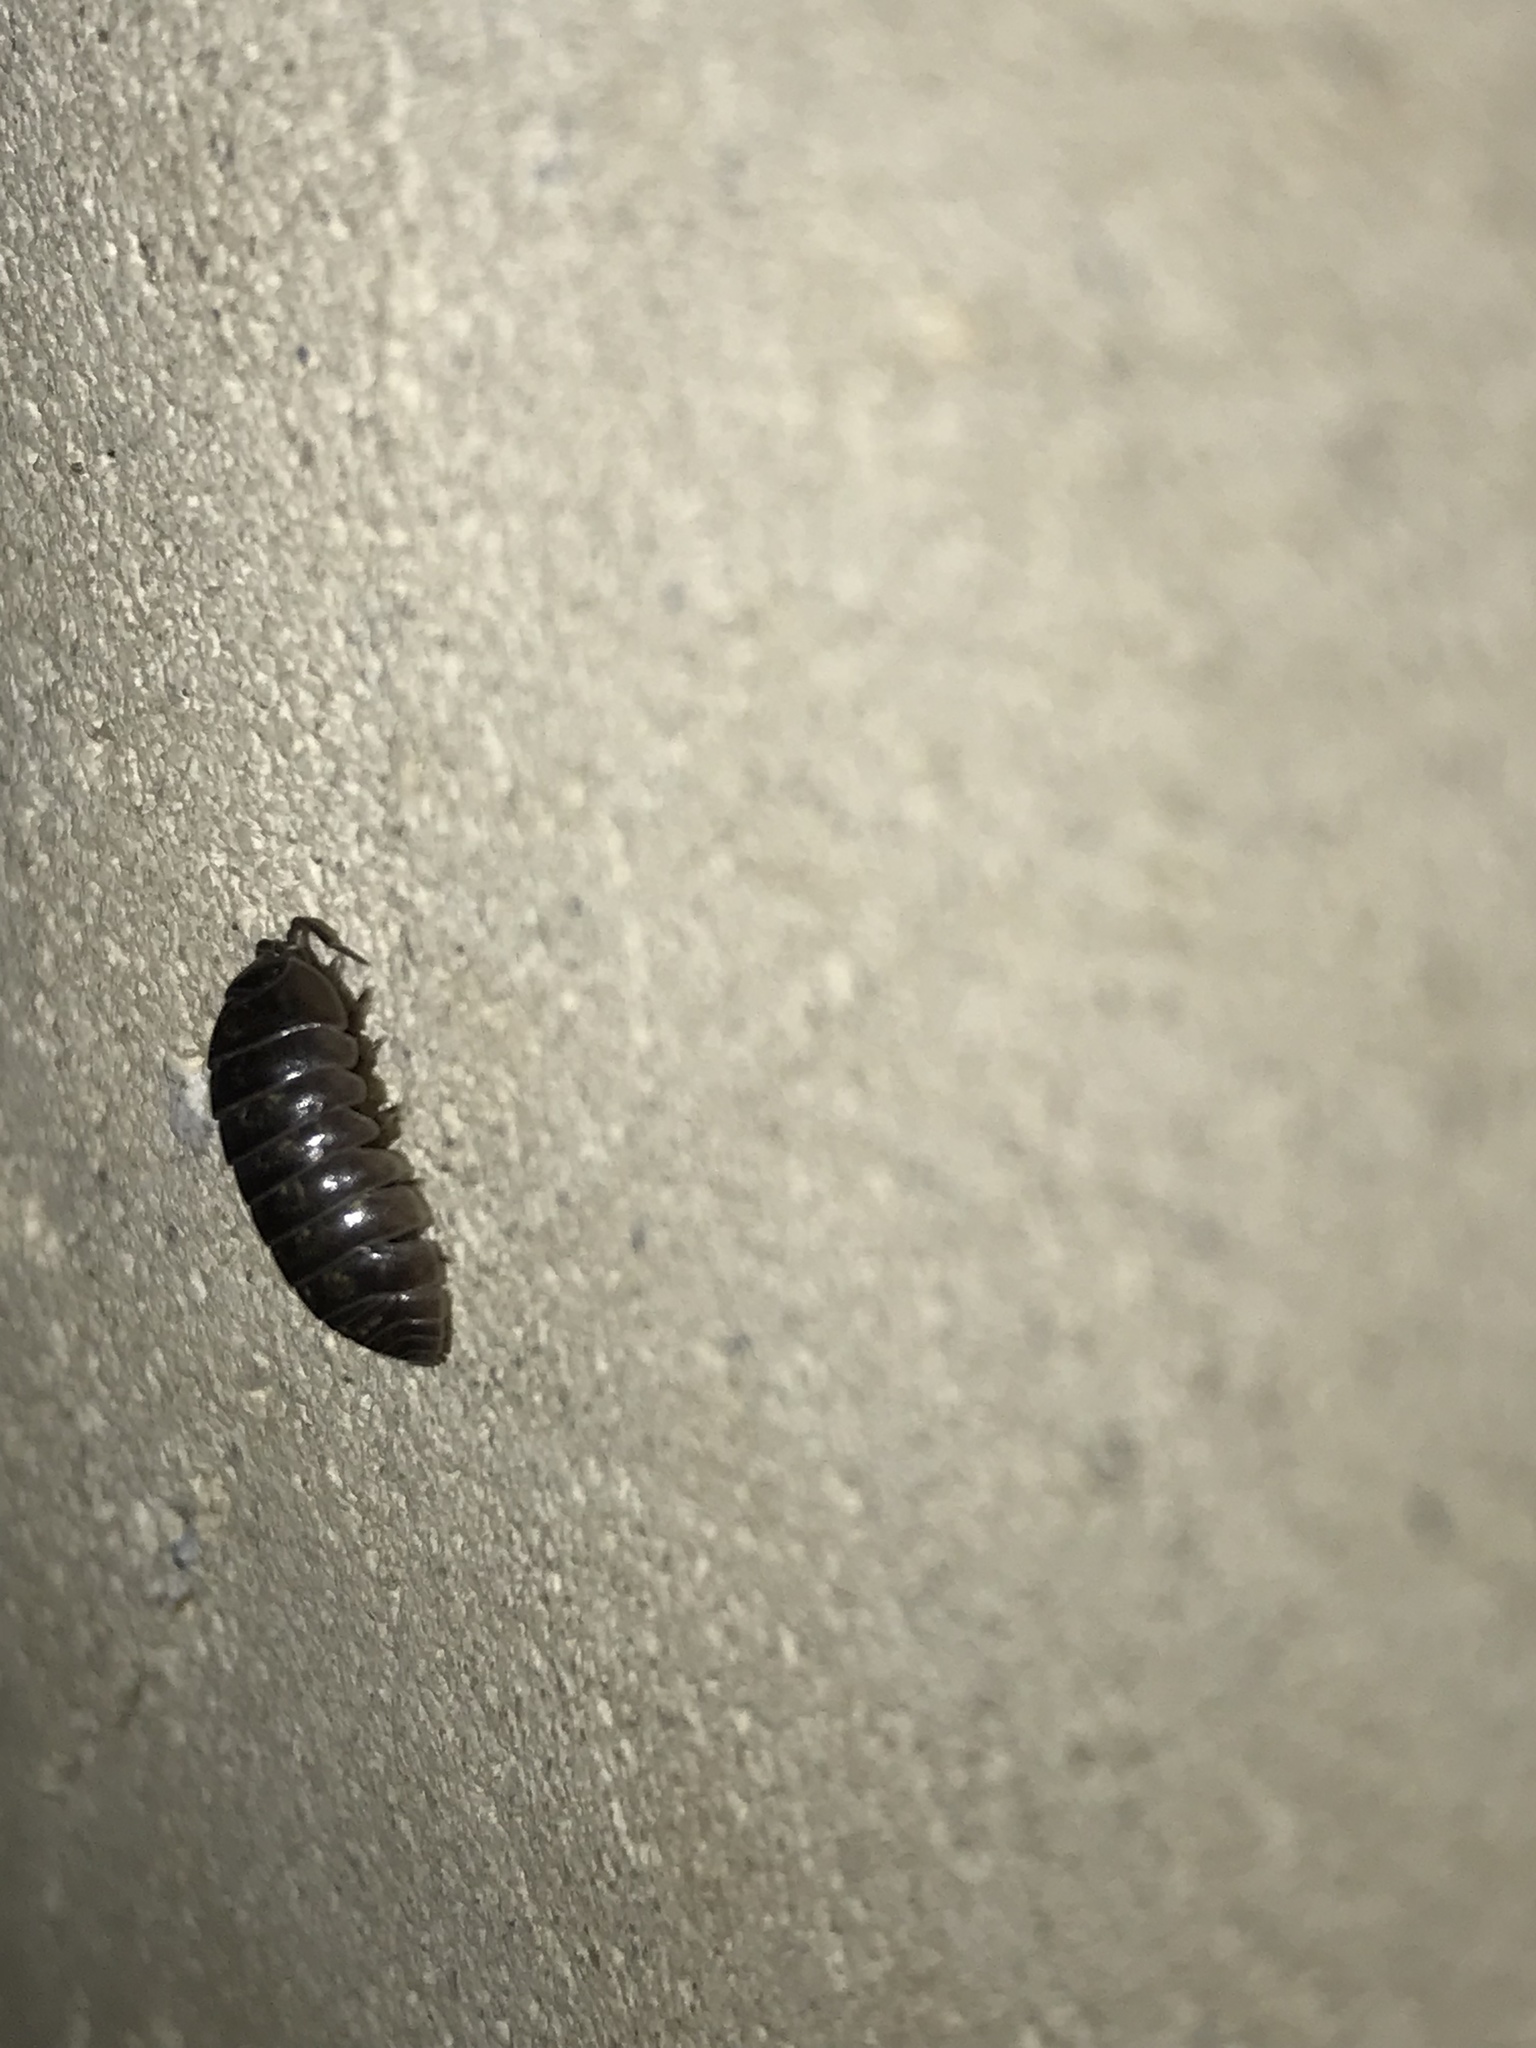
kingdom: Animalia
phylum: Arthropoda
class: Malacostraca
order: Isopoda
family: Armadillidiidae
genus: Armadillidium
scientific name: Armadillidium vulgare
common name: Common pill woodlouse
